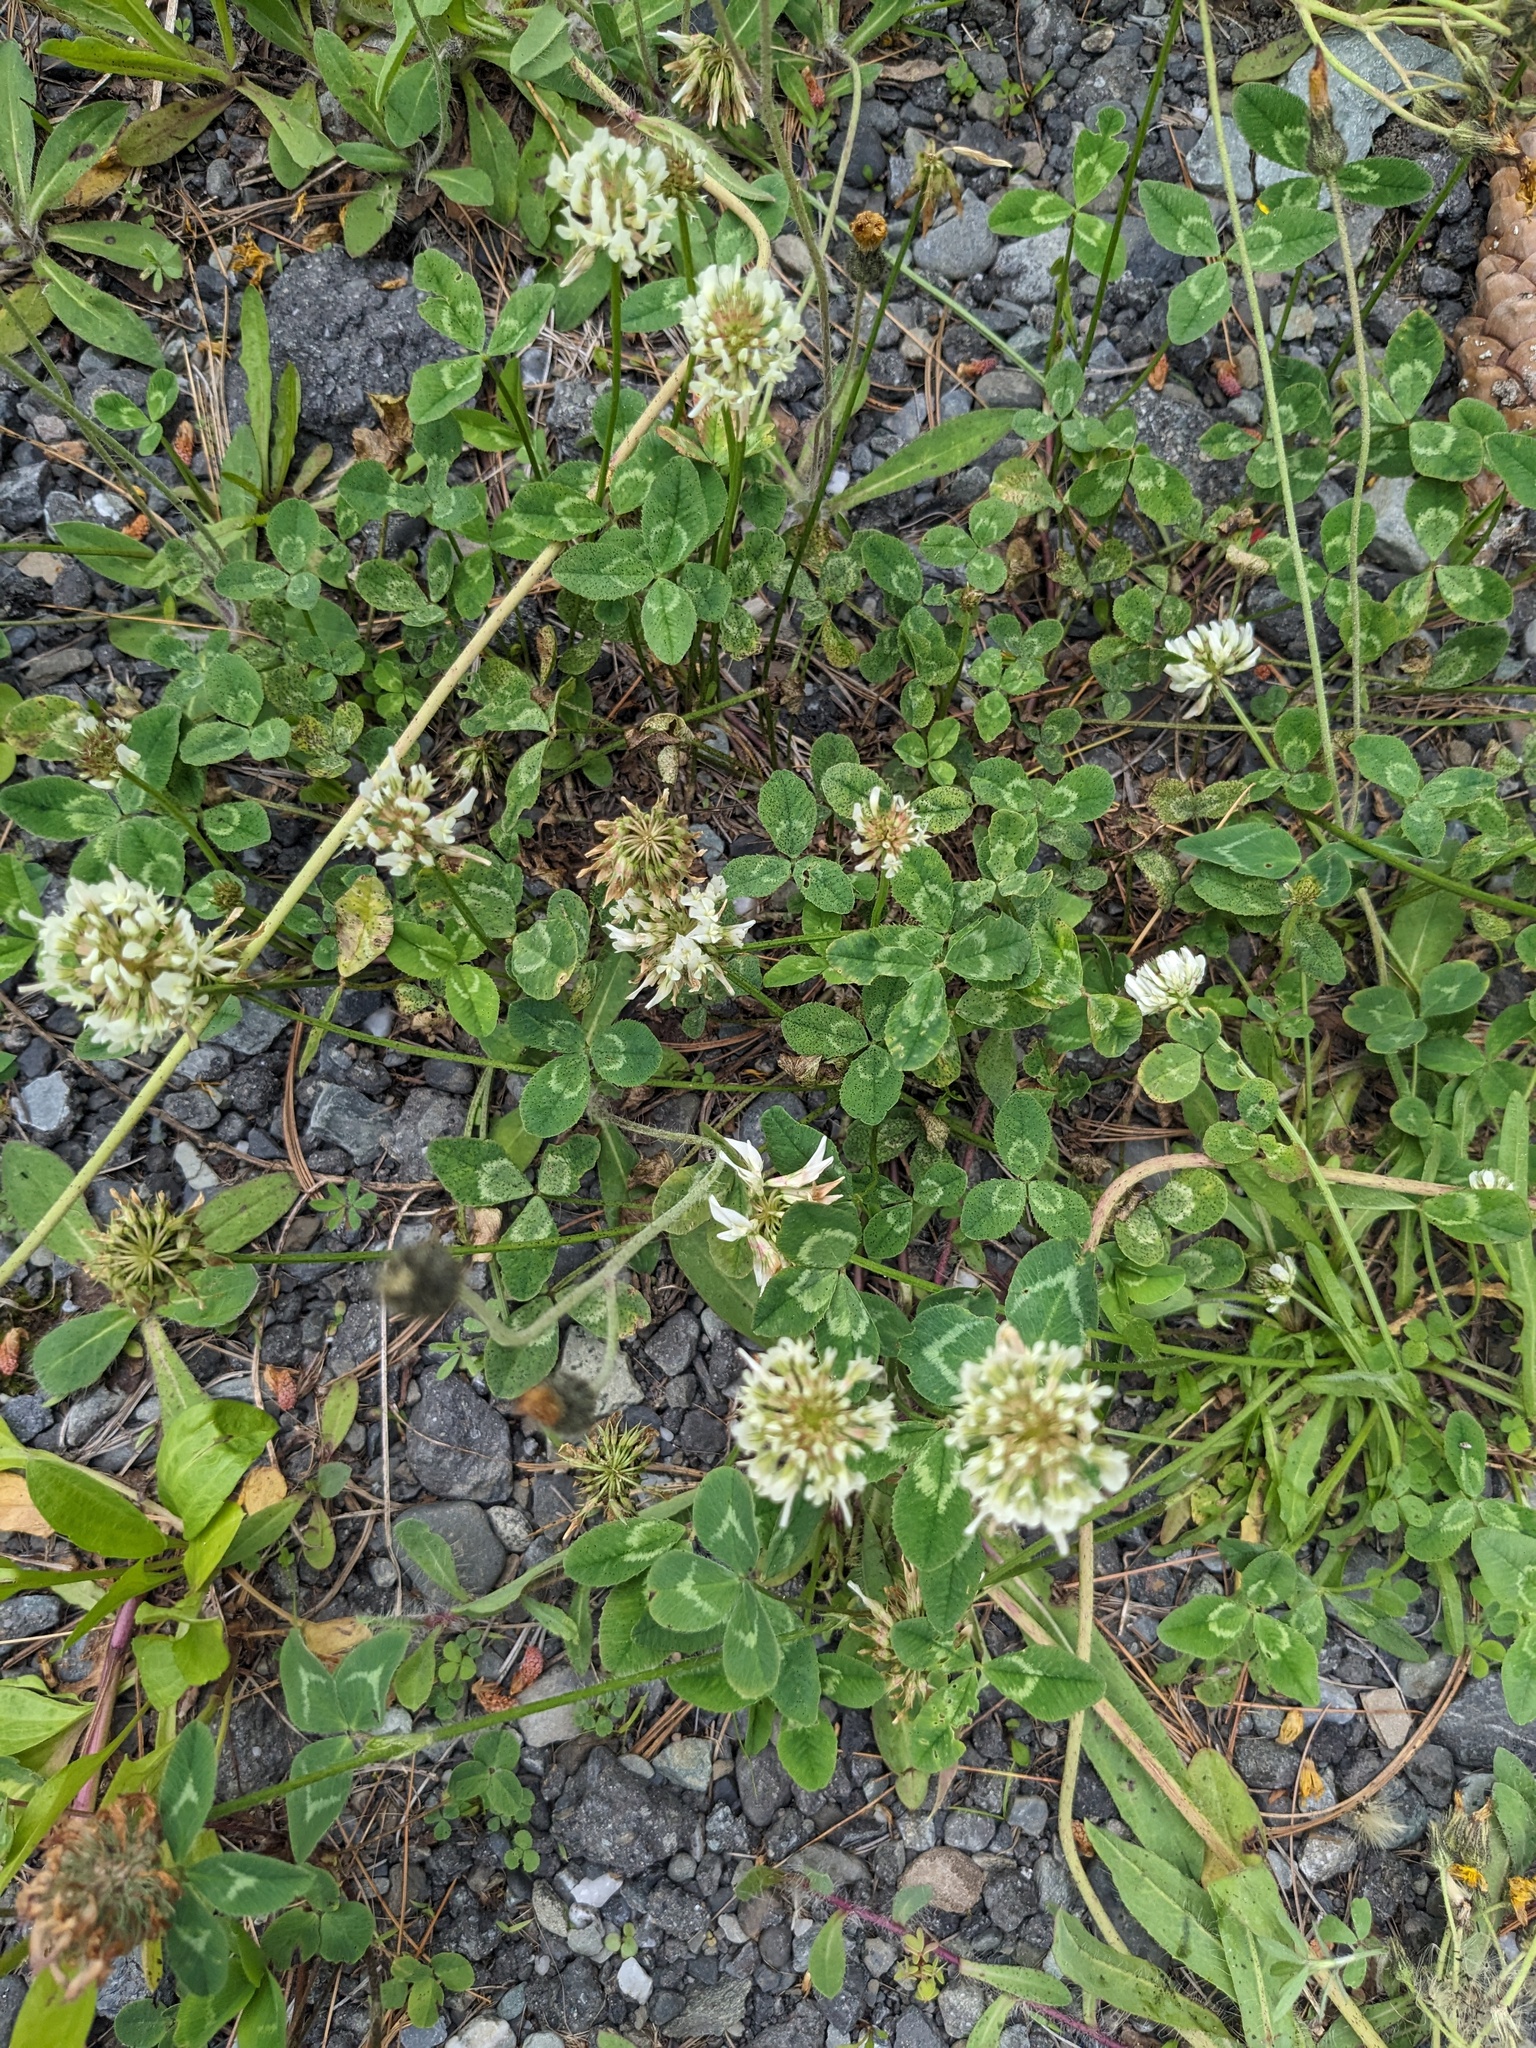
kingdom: Plantae
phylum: Tracheophyta
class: Magnoliopsida
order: Fabales
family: Fabaceae
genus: Trifolium
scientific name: Trifolium repens
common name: White clover
